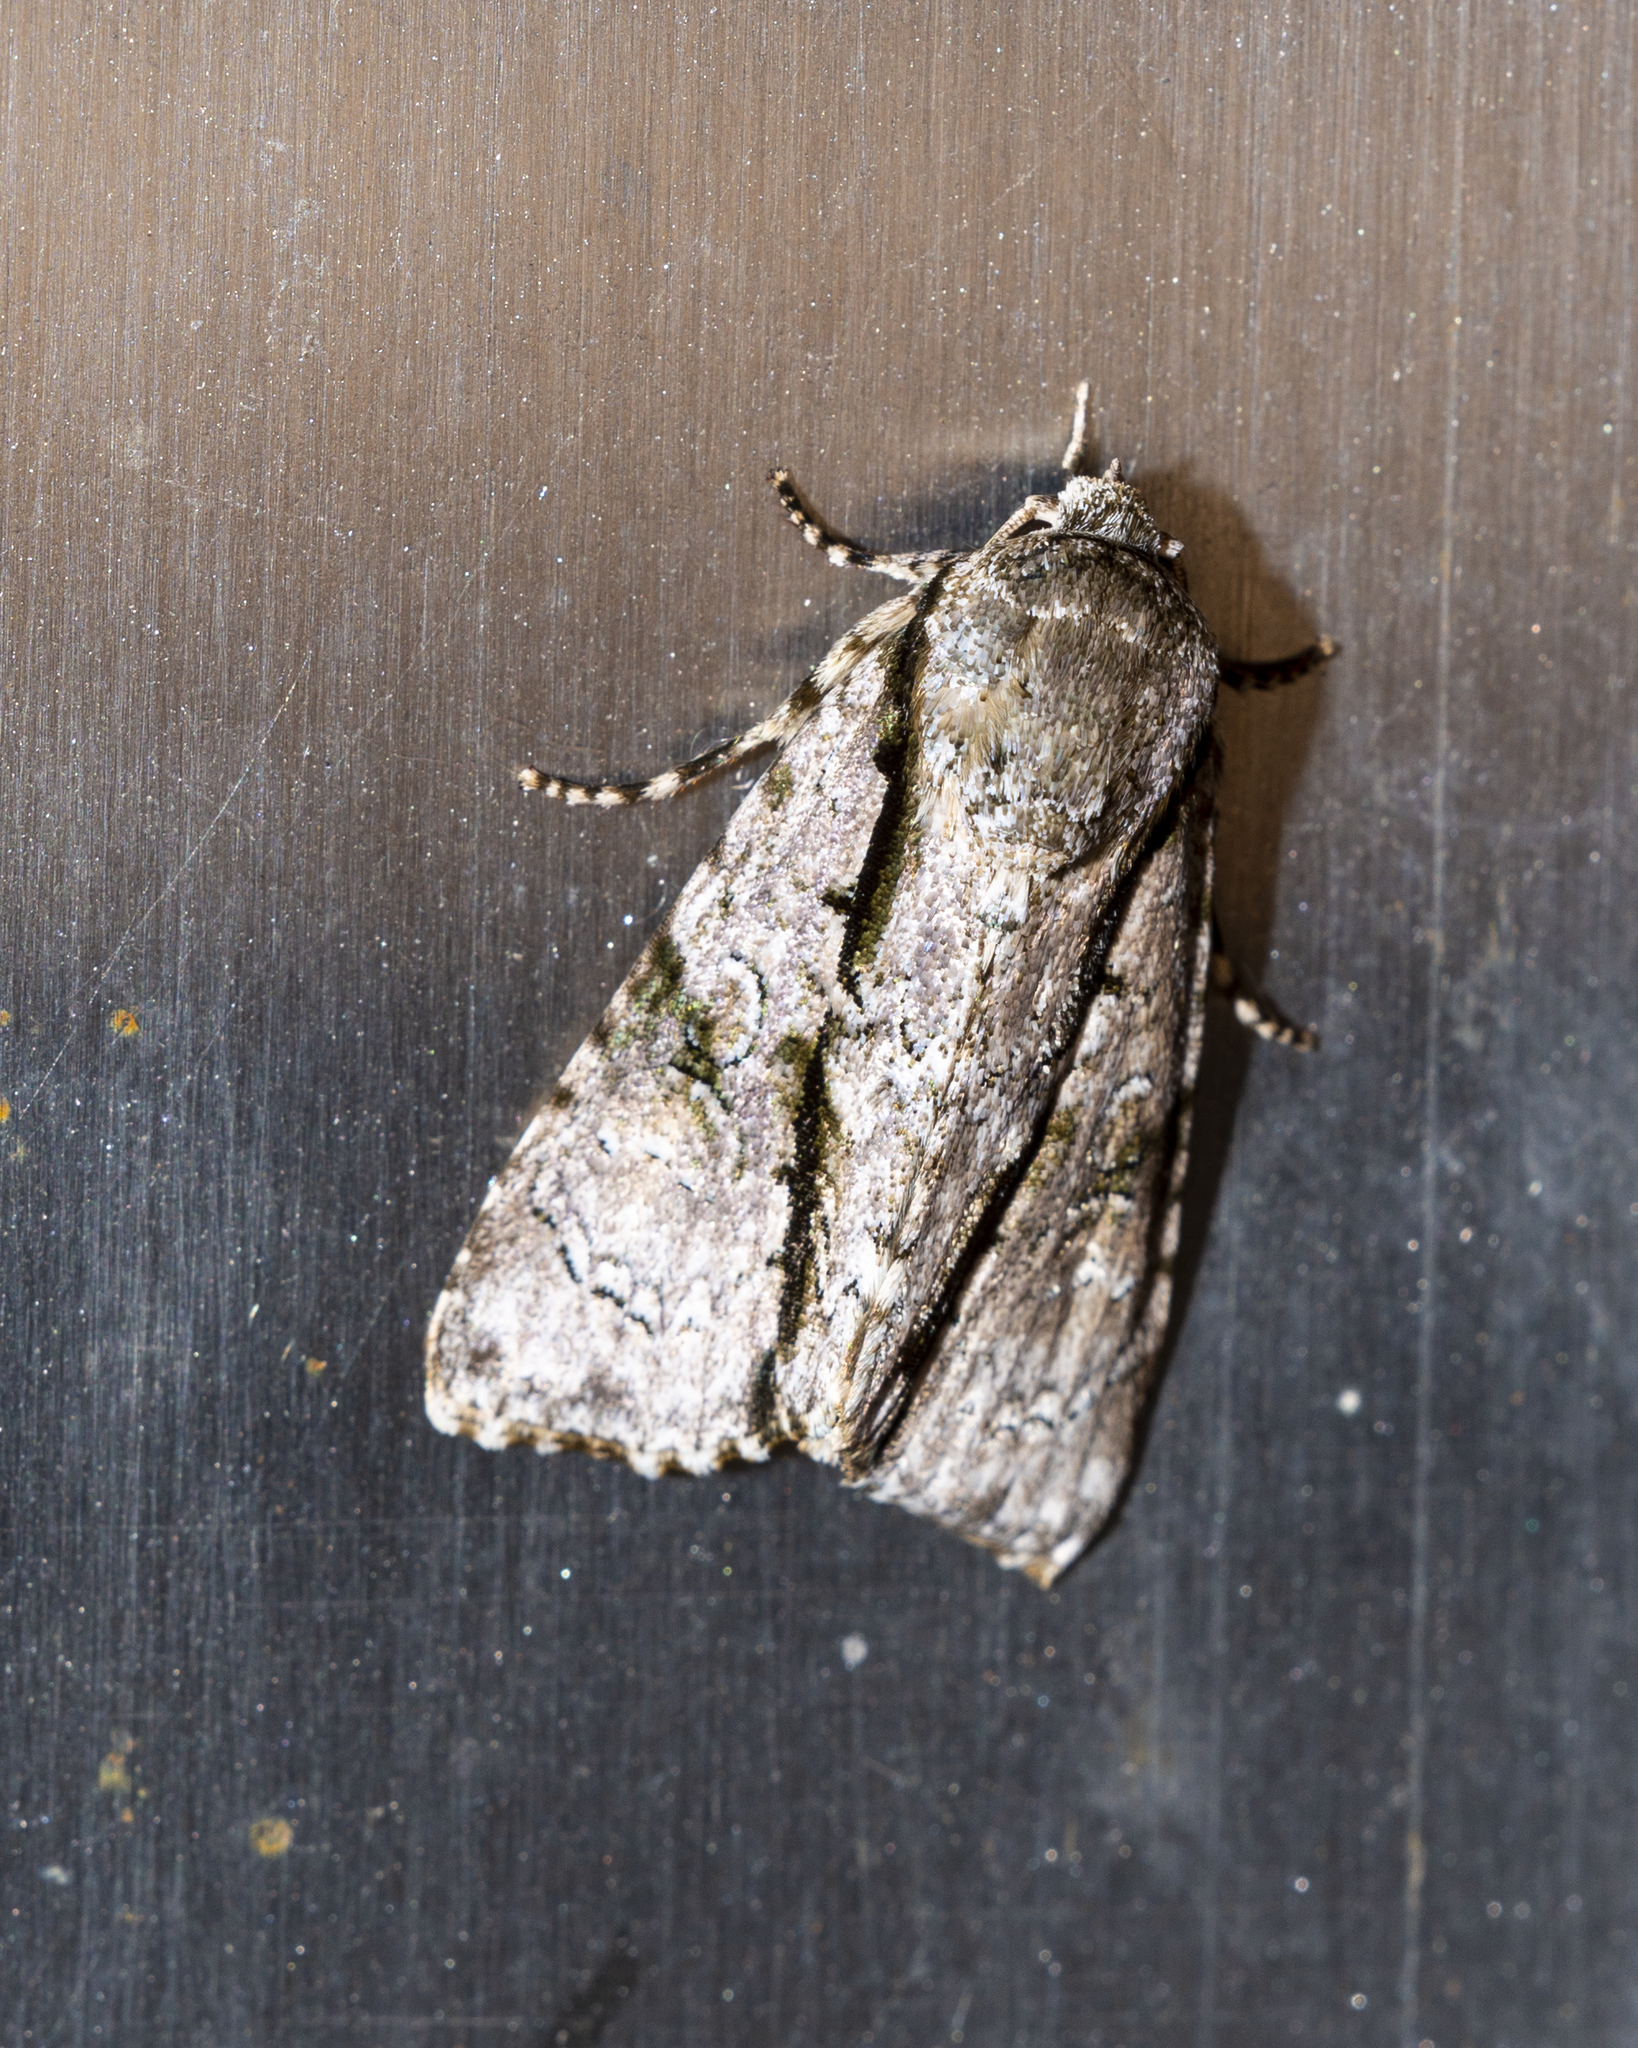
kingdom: Animalia
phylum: Arthropoda
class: Insecta
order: Lepidoptera
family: Noctuidae
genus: Fascionycta
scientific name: Fascionycta fasciata
